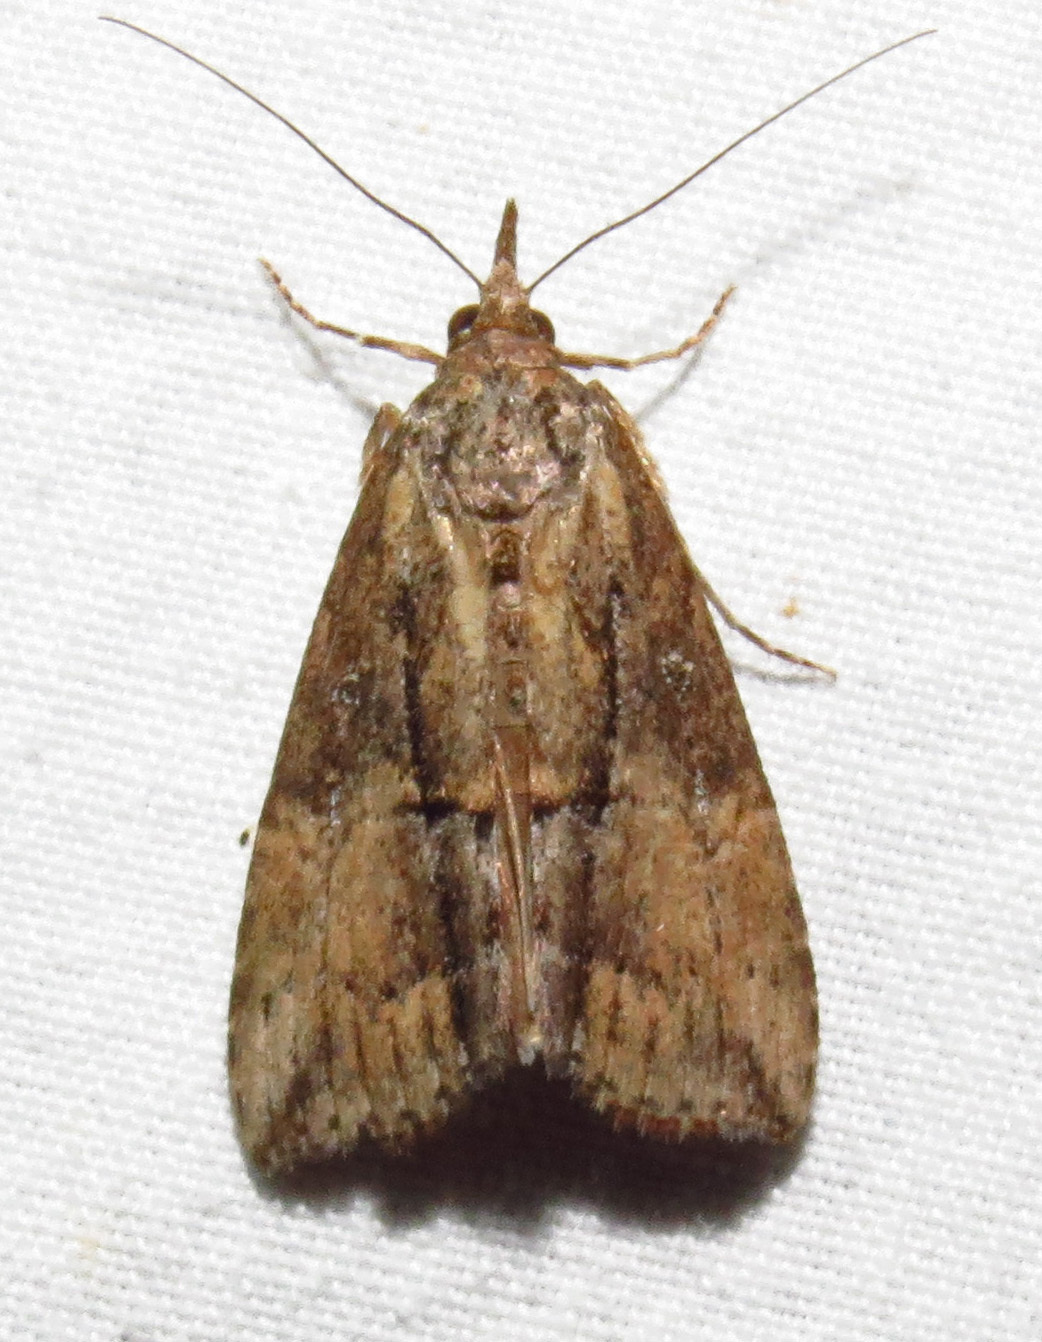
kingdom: Animalia
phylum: Arthropoda
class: Insecta
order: Lepidoptera
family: Erebidae
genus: Hypena
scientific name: Hypena scabra
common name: Green cloverworm
